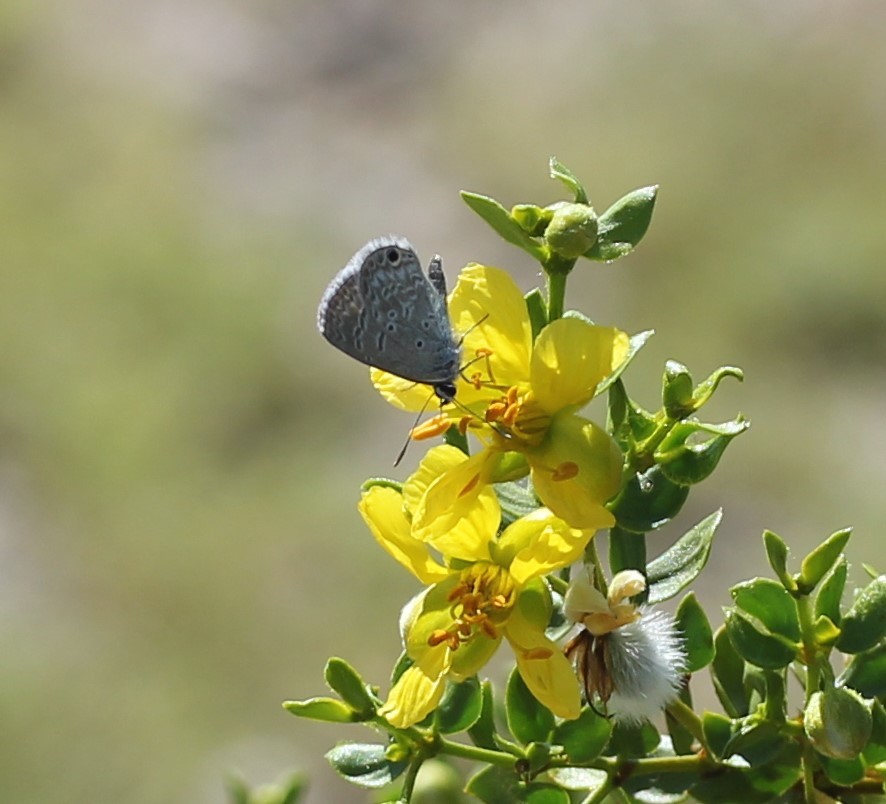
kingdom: Animalia
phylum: Arthropoda
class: Insecta
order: Lepidoptera
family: Lycaenidae
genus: Hemiargus
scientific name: Hemiargus ceraunus
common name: Ceraunus blue
